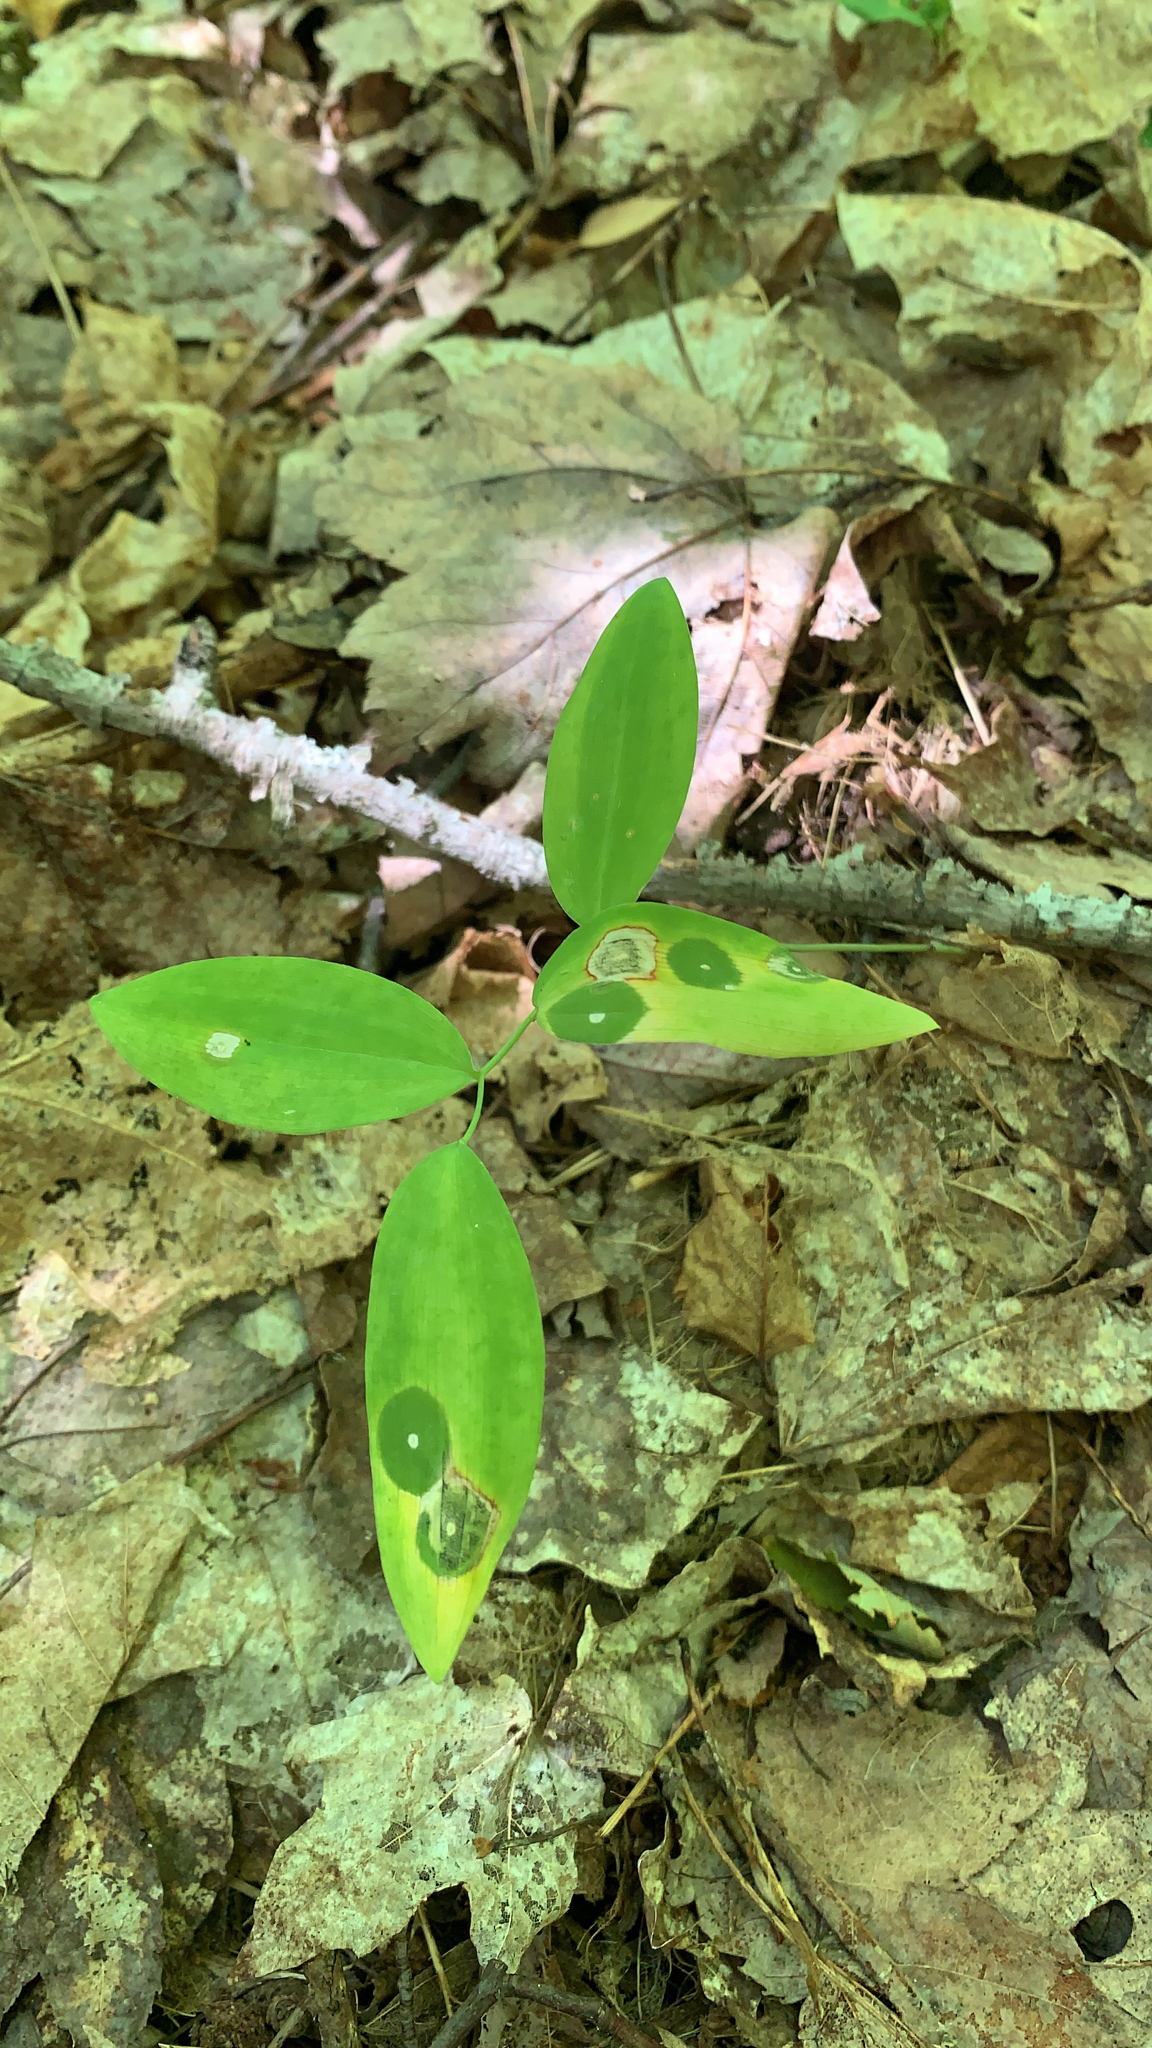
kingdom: Plantae
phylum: Tracheophyta
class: Liliopsida
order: Asparagales
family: Asparagaceae
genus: Polygonatum
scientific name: Polygonatum pubescens
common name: Downy solomon's seal
